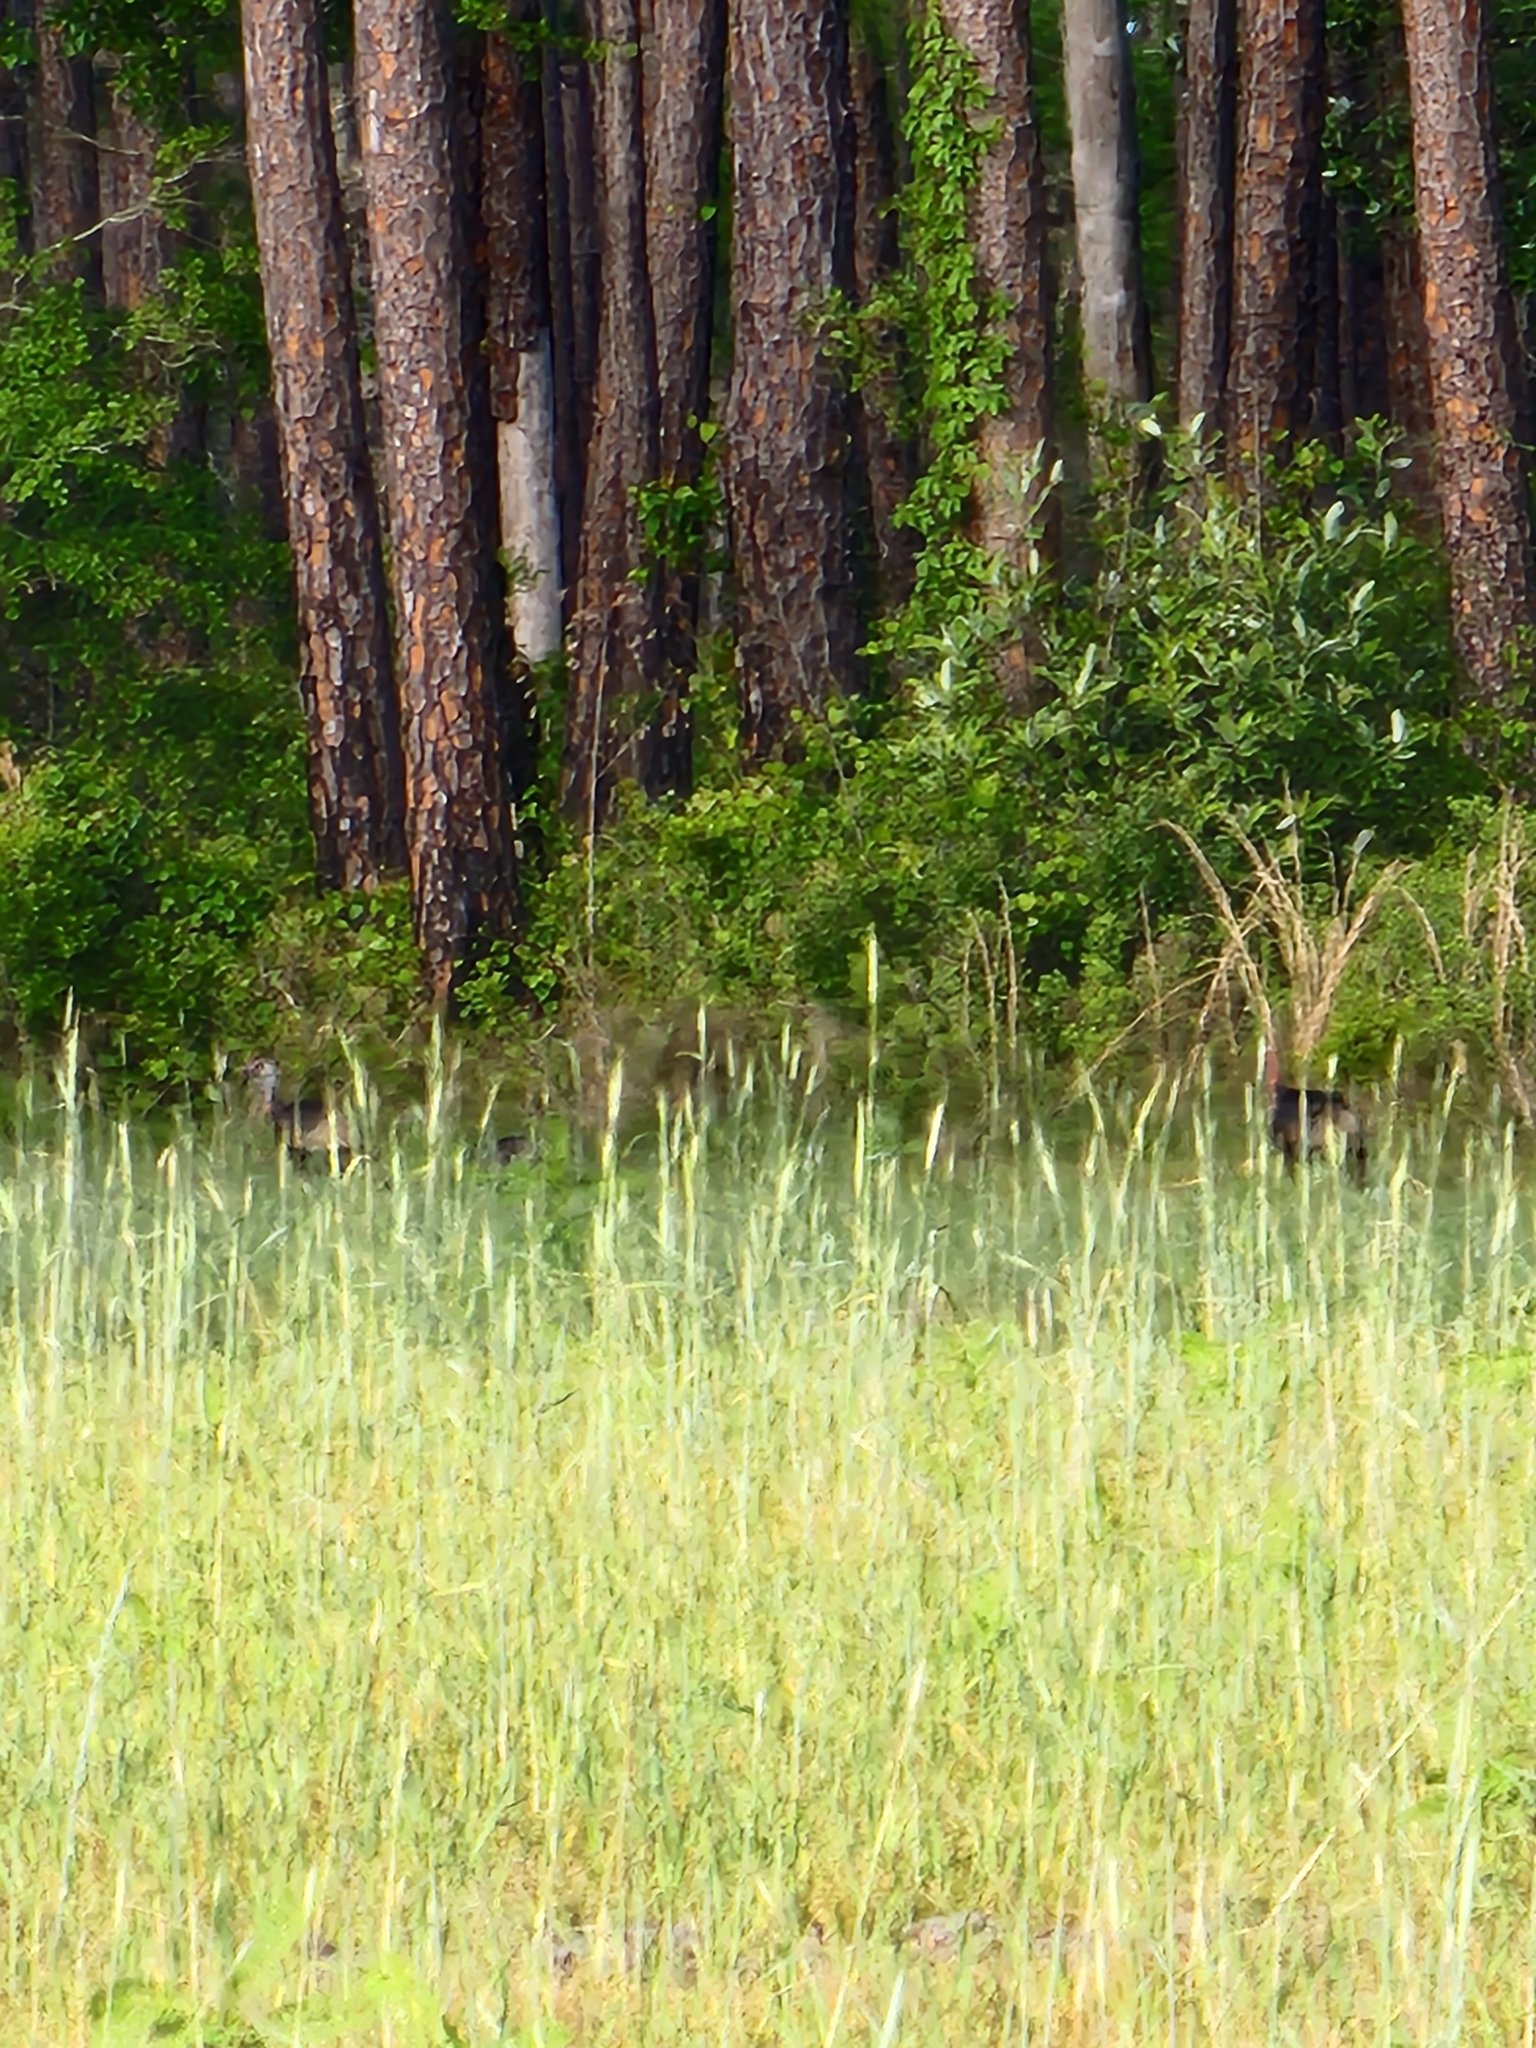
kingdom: Animalia
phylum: Chordata
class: Aves
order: Galliformes
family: Phasianidae
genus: Meleagris
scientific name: Meleagris gallopavo
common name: Wild turkey
